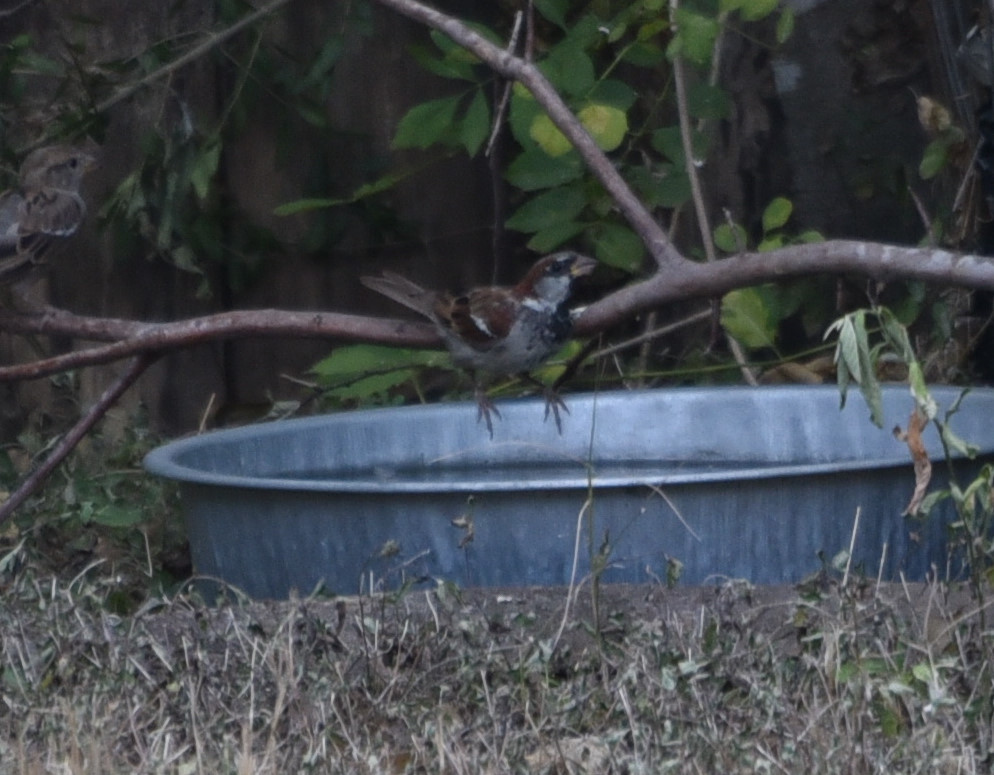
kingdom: Animalia
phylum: Chordata
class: Aves
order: Passeriformes
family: Passeridae
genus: Passer
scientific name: Passer domesticus
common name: House sparrow
